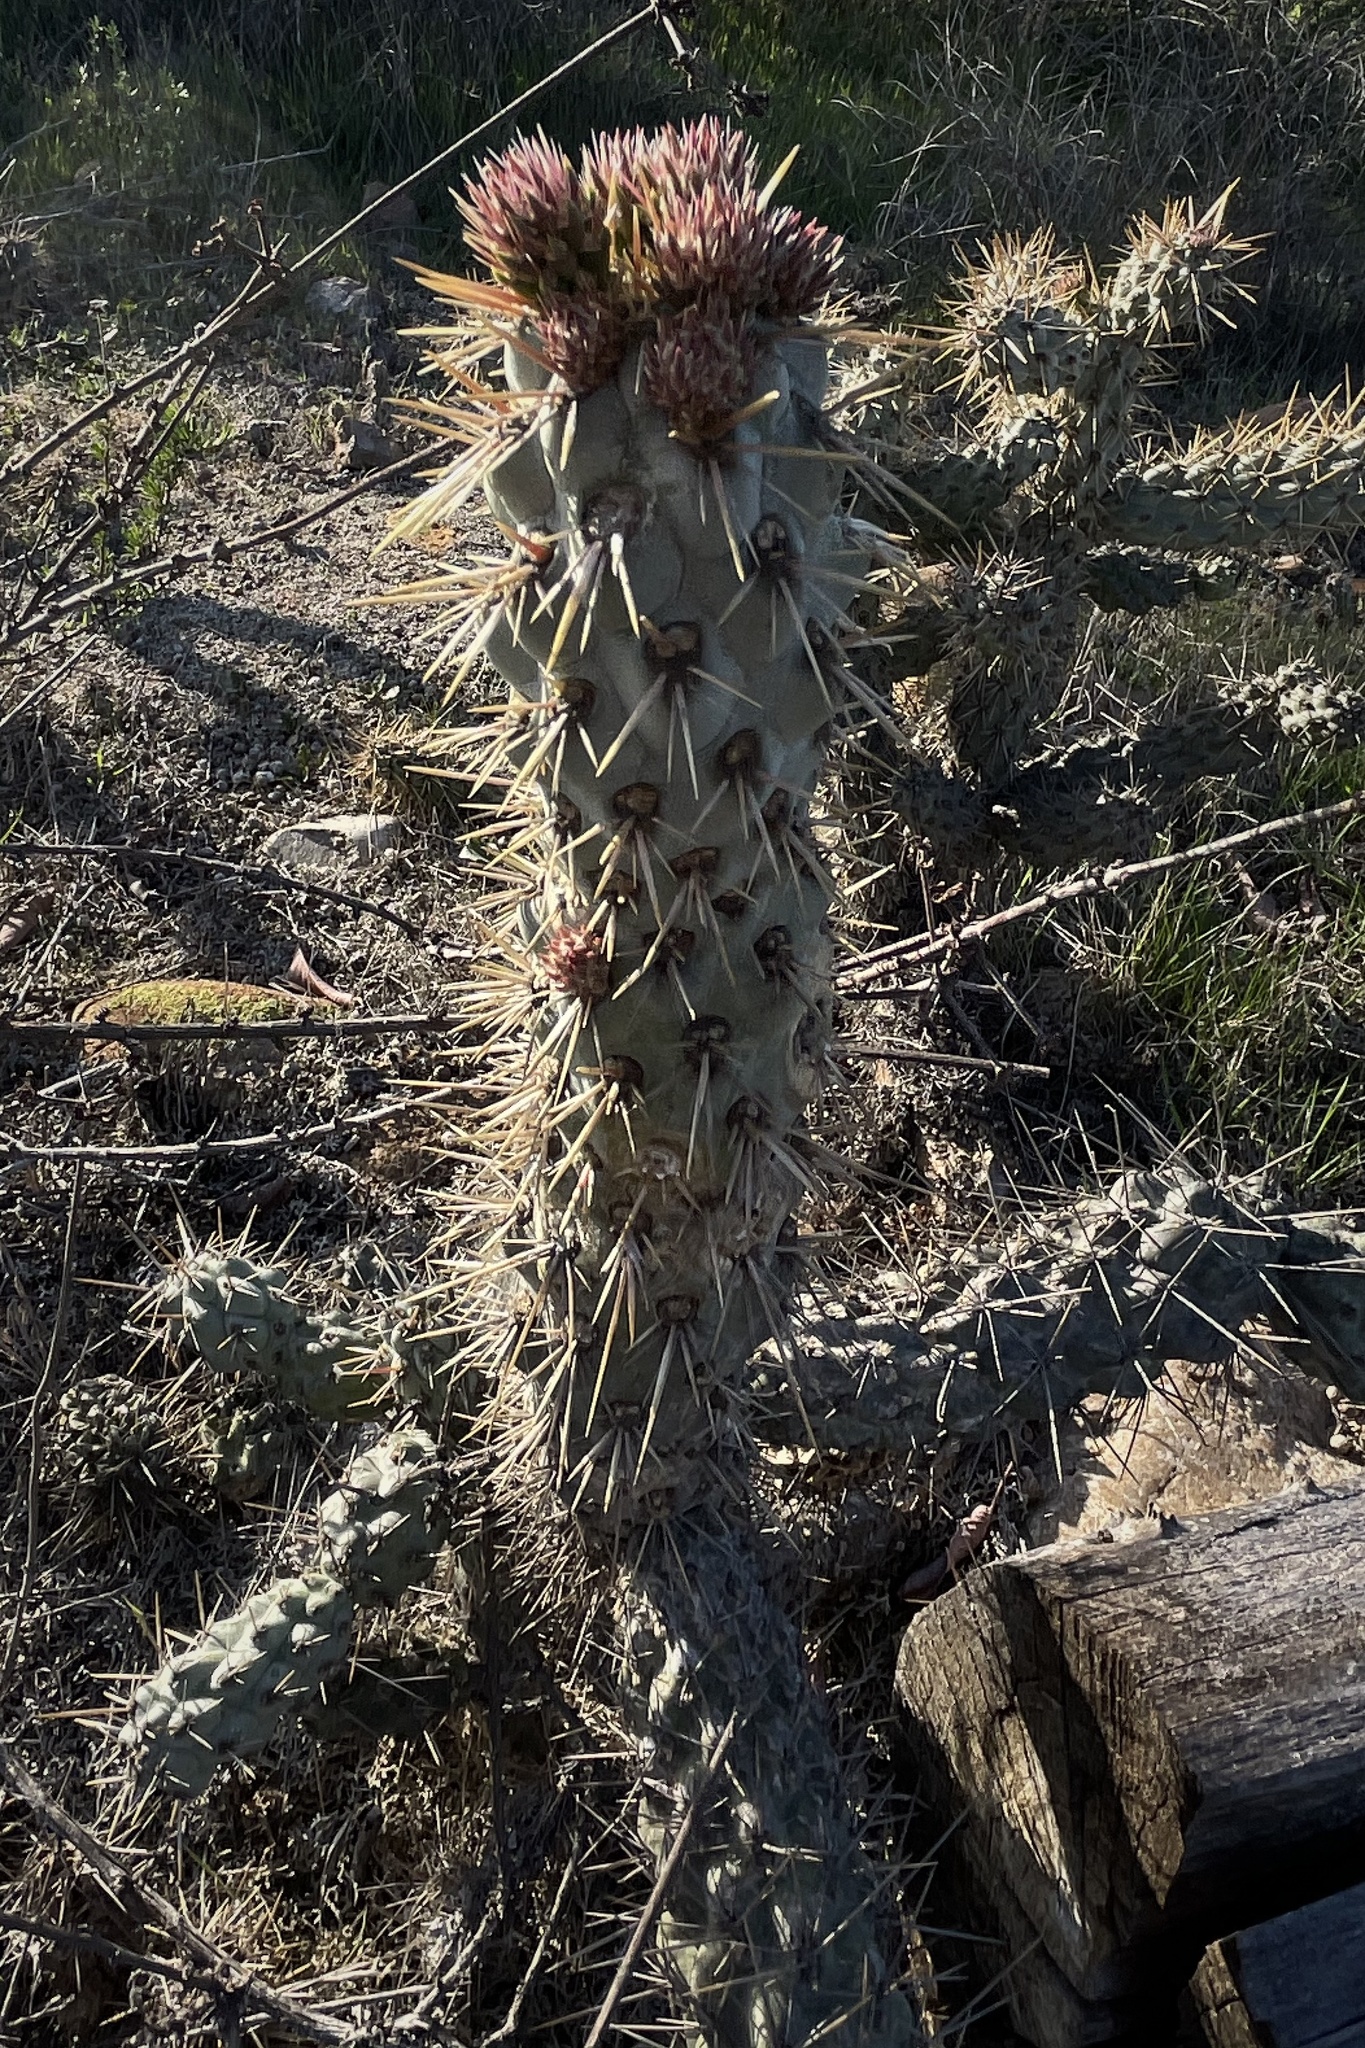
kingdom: Plantae
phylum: Tracheophyta
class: Magnoliopsida
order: Caryophyllales
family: Cactaceae
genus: Cylindropuntia
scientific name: Cylindropuntia prolifera
